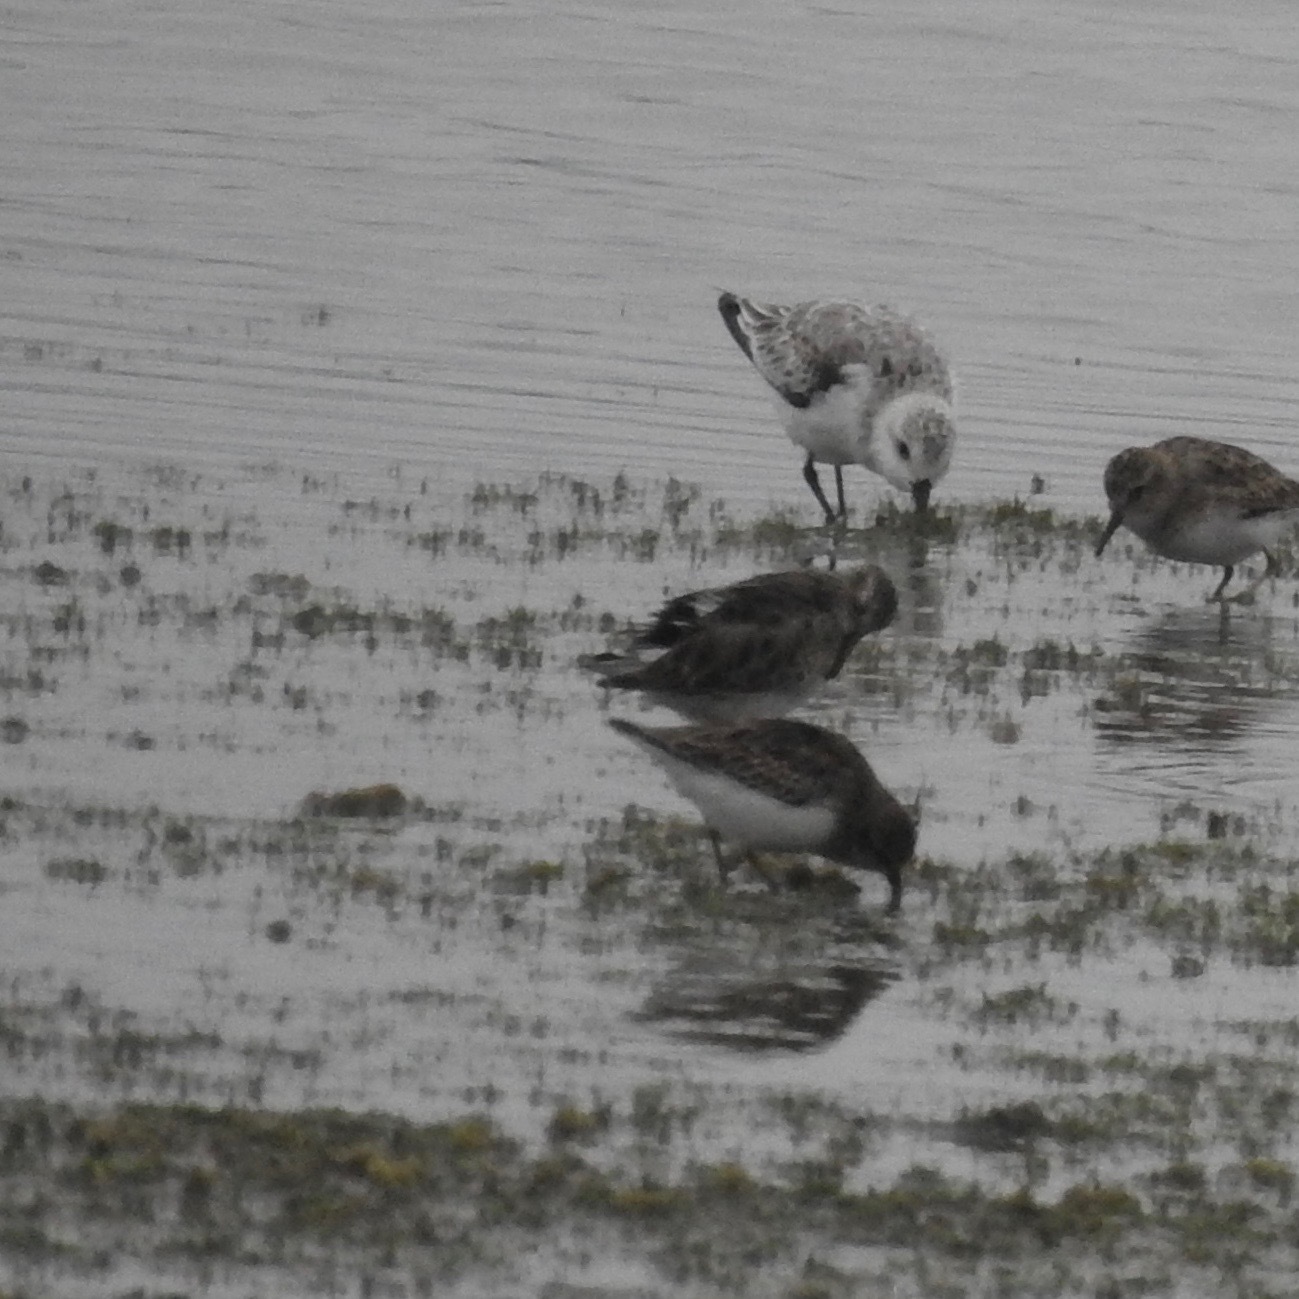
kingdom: Animalia
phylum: Chordata
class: Aves
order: Charadriiformes
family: Scolopacidae
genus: Calidris
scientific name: Calidris alba
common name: Sanderling
